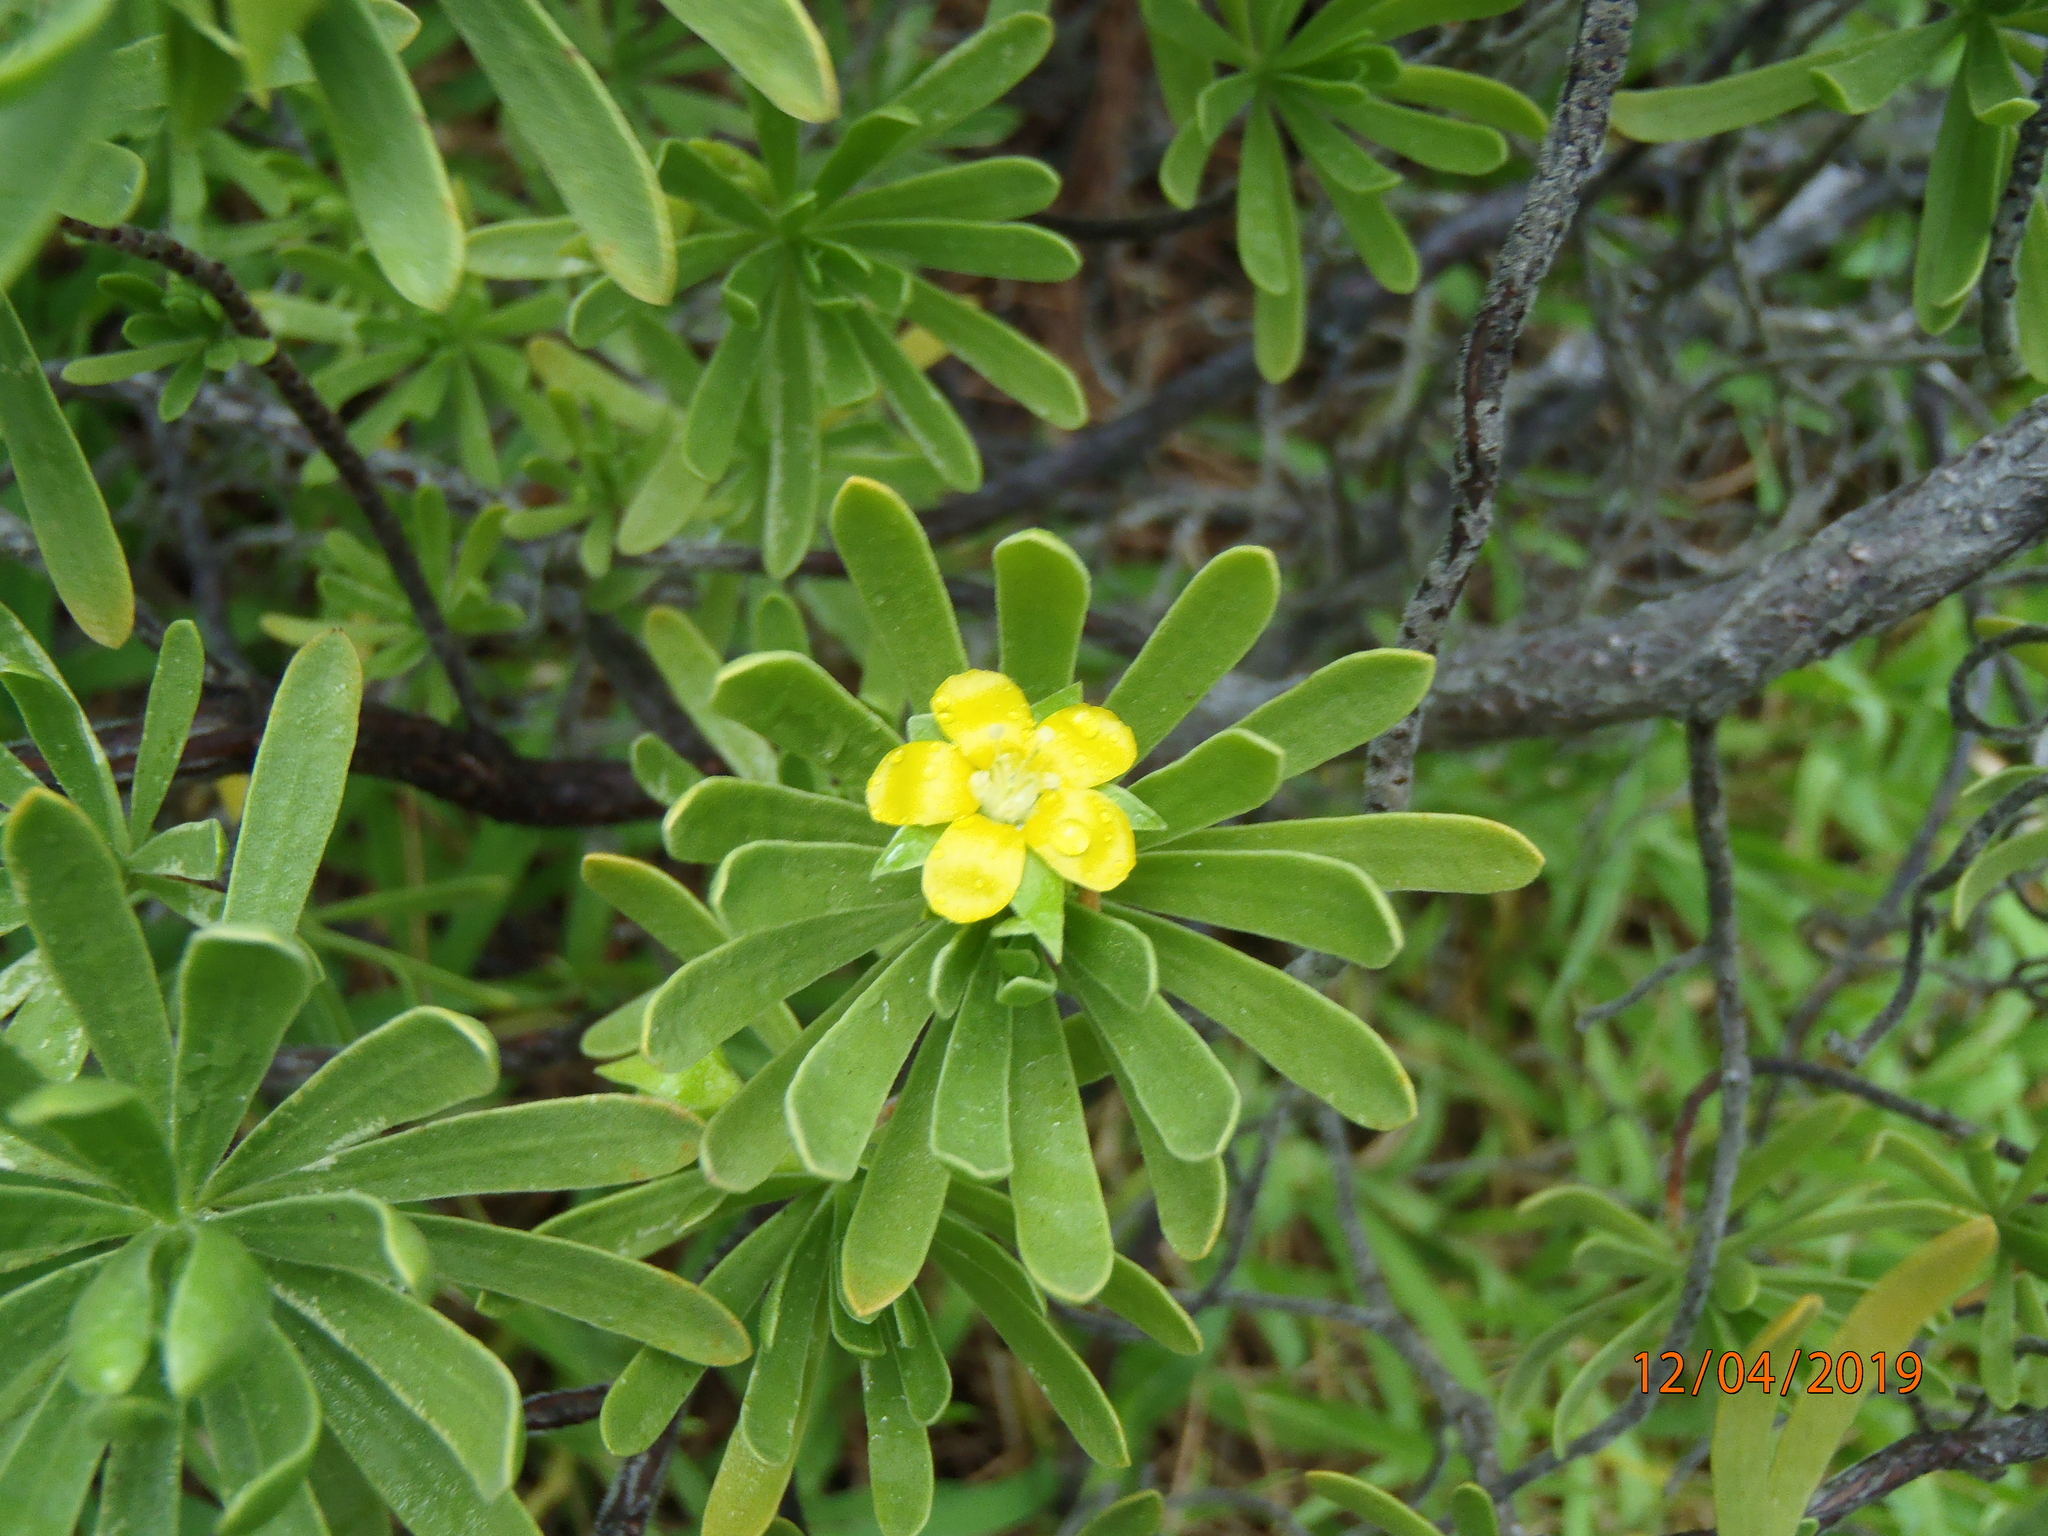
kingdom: Plantae
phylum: Tracheophyta
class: Magnoliopsida
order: Fabales
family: Surianaceae
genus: Suriana
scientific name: Suriana maritima
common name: Bay-cedar
